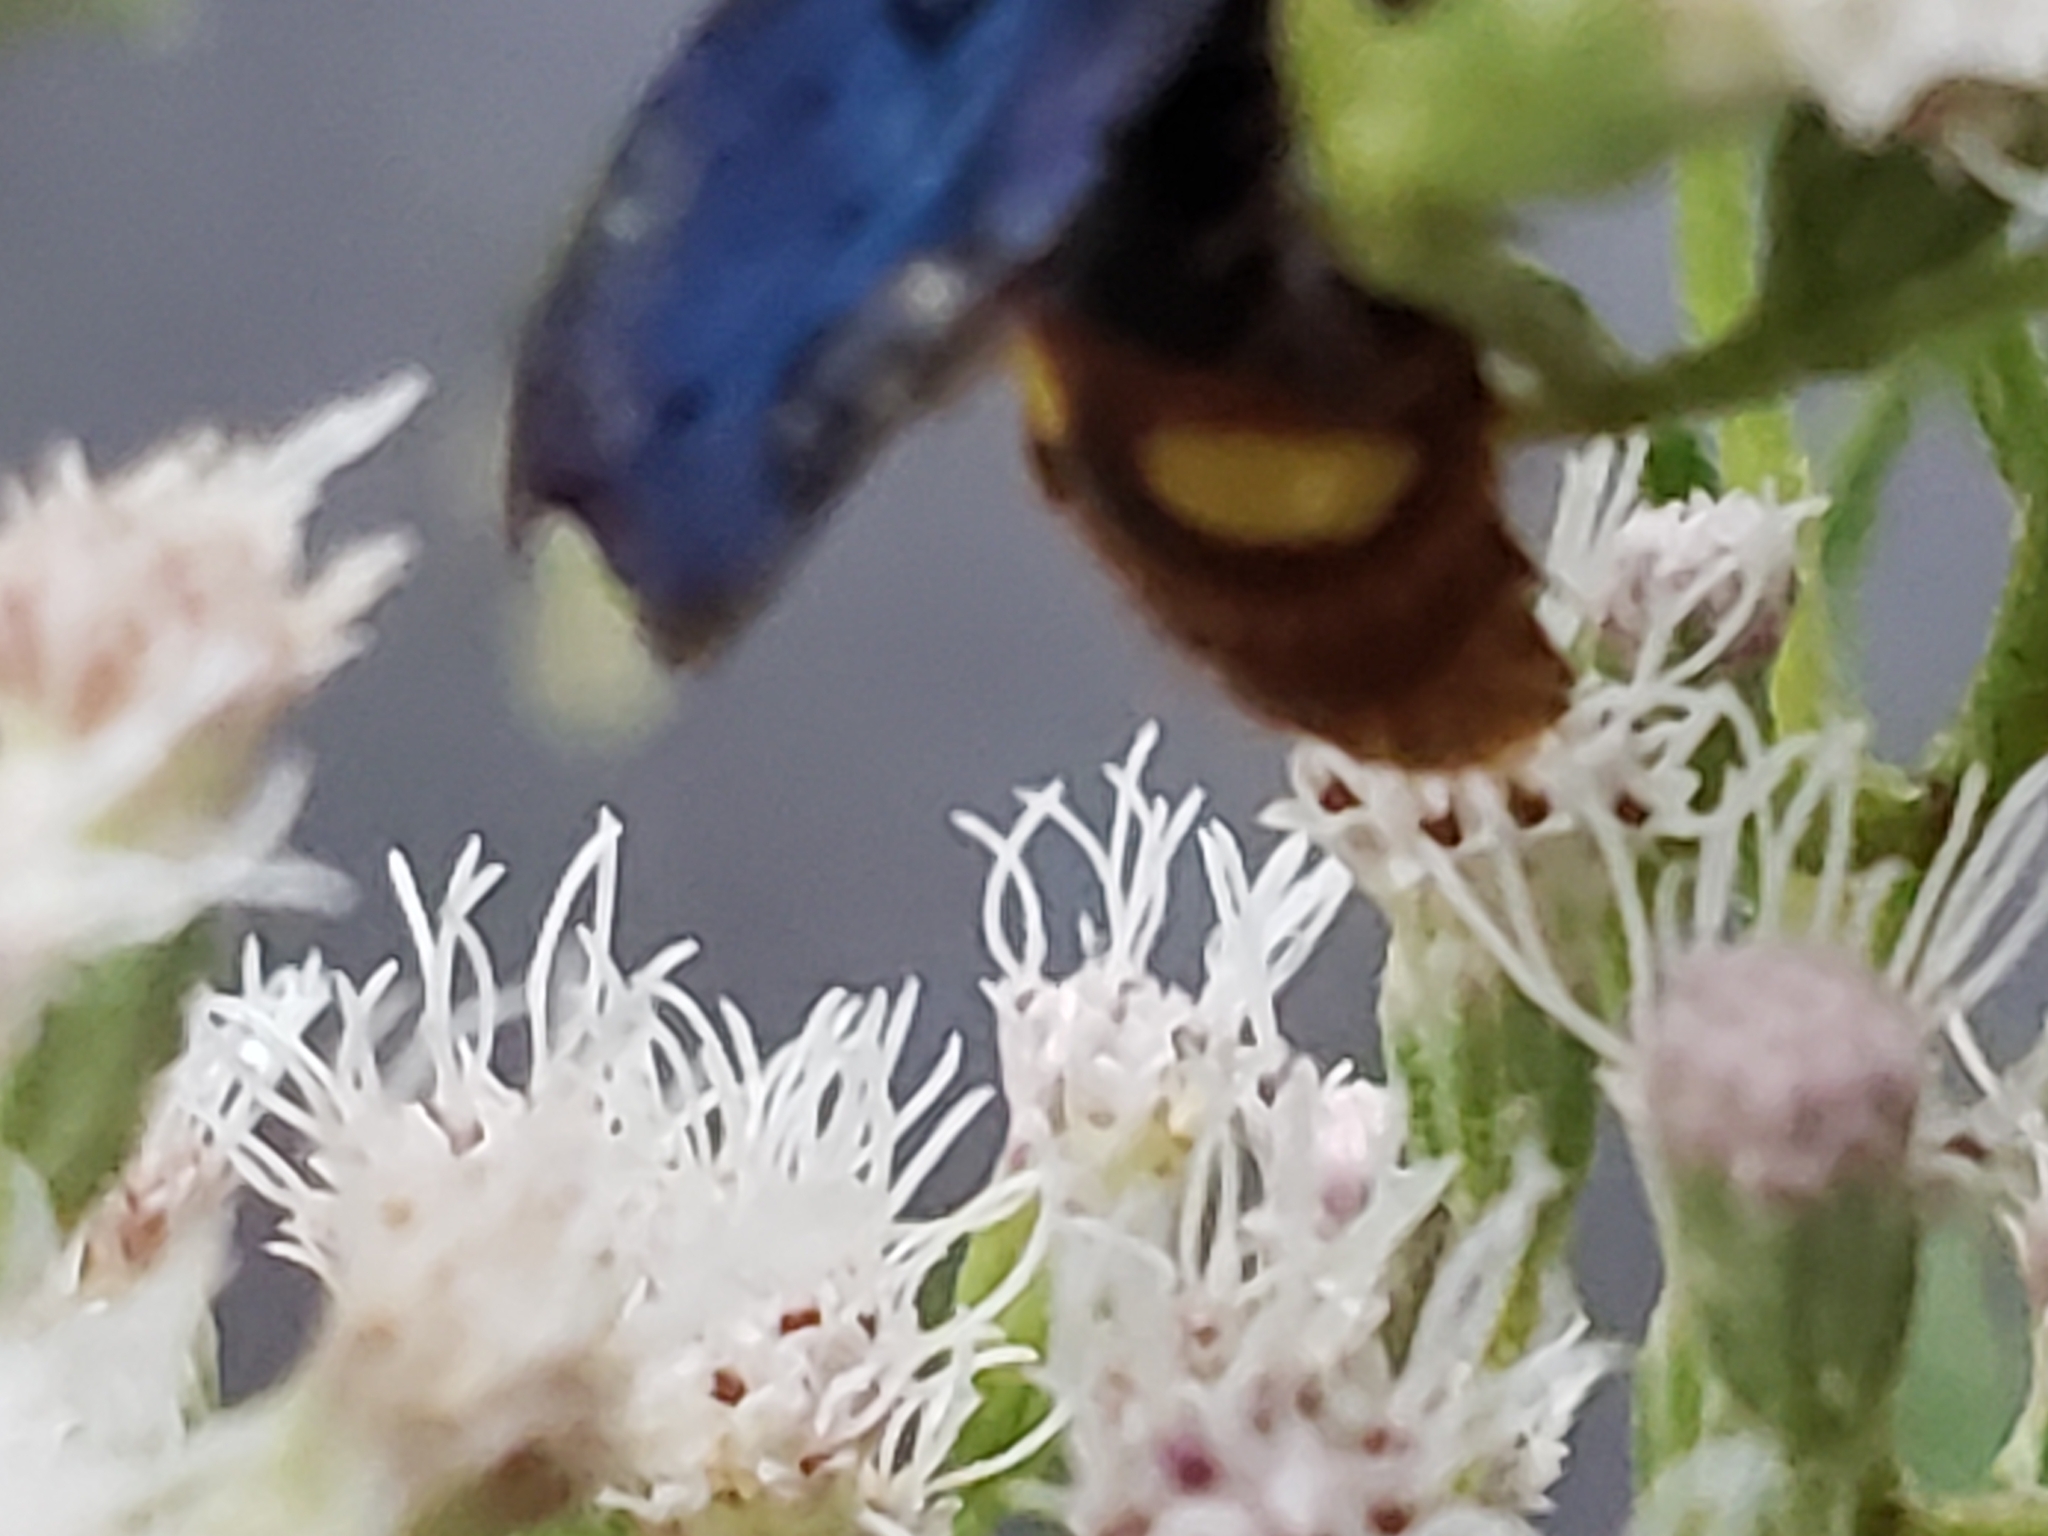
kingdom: Animalia
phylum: Arthropoda
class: Insecta
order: Hymenoptera
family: Scoliidae
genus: Scolia
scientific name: Scolia dubia
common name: Blue-winged scoliid wasp
